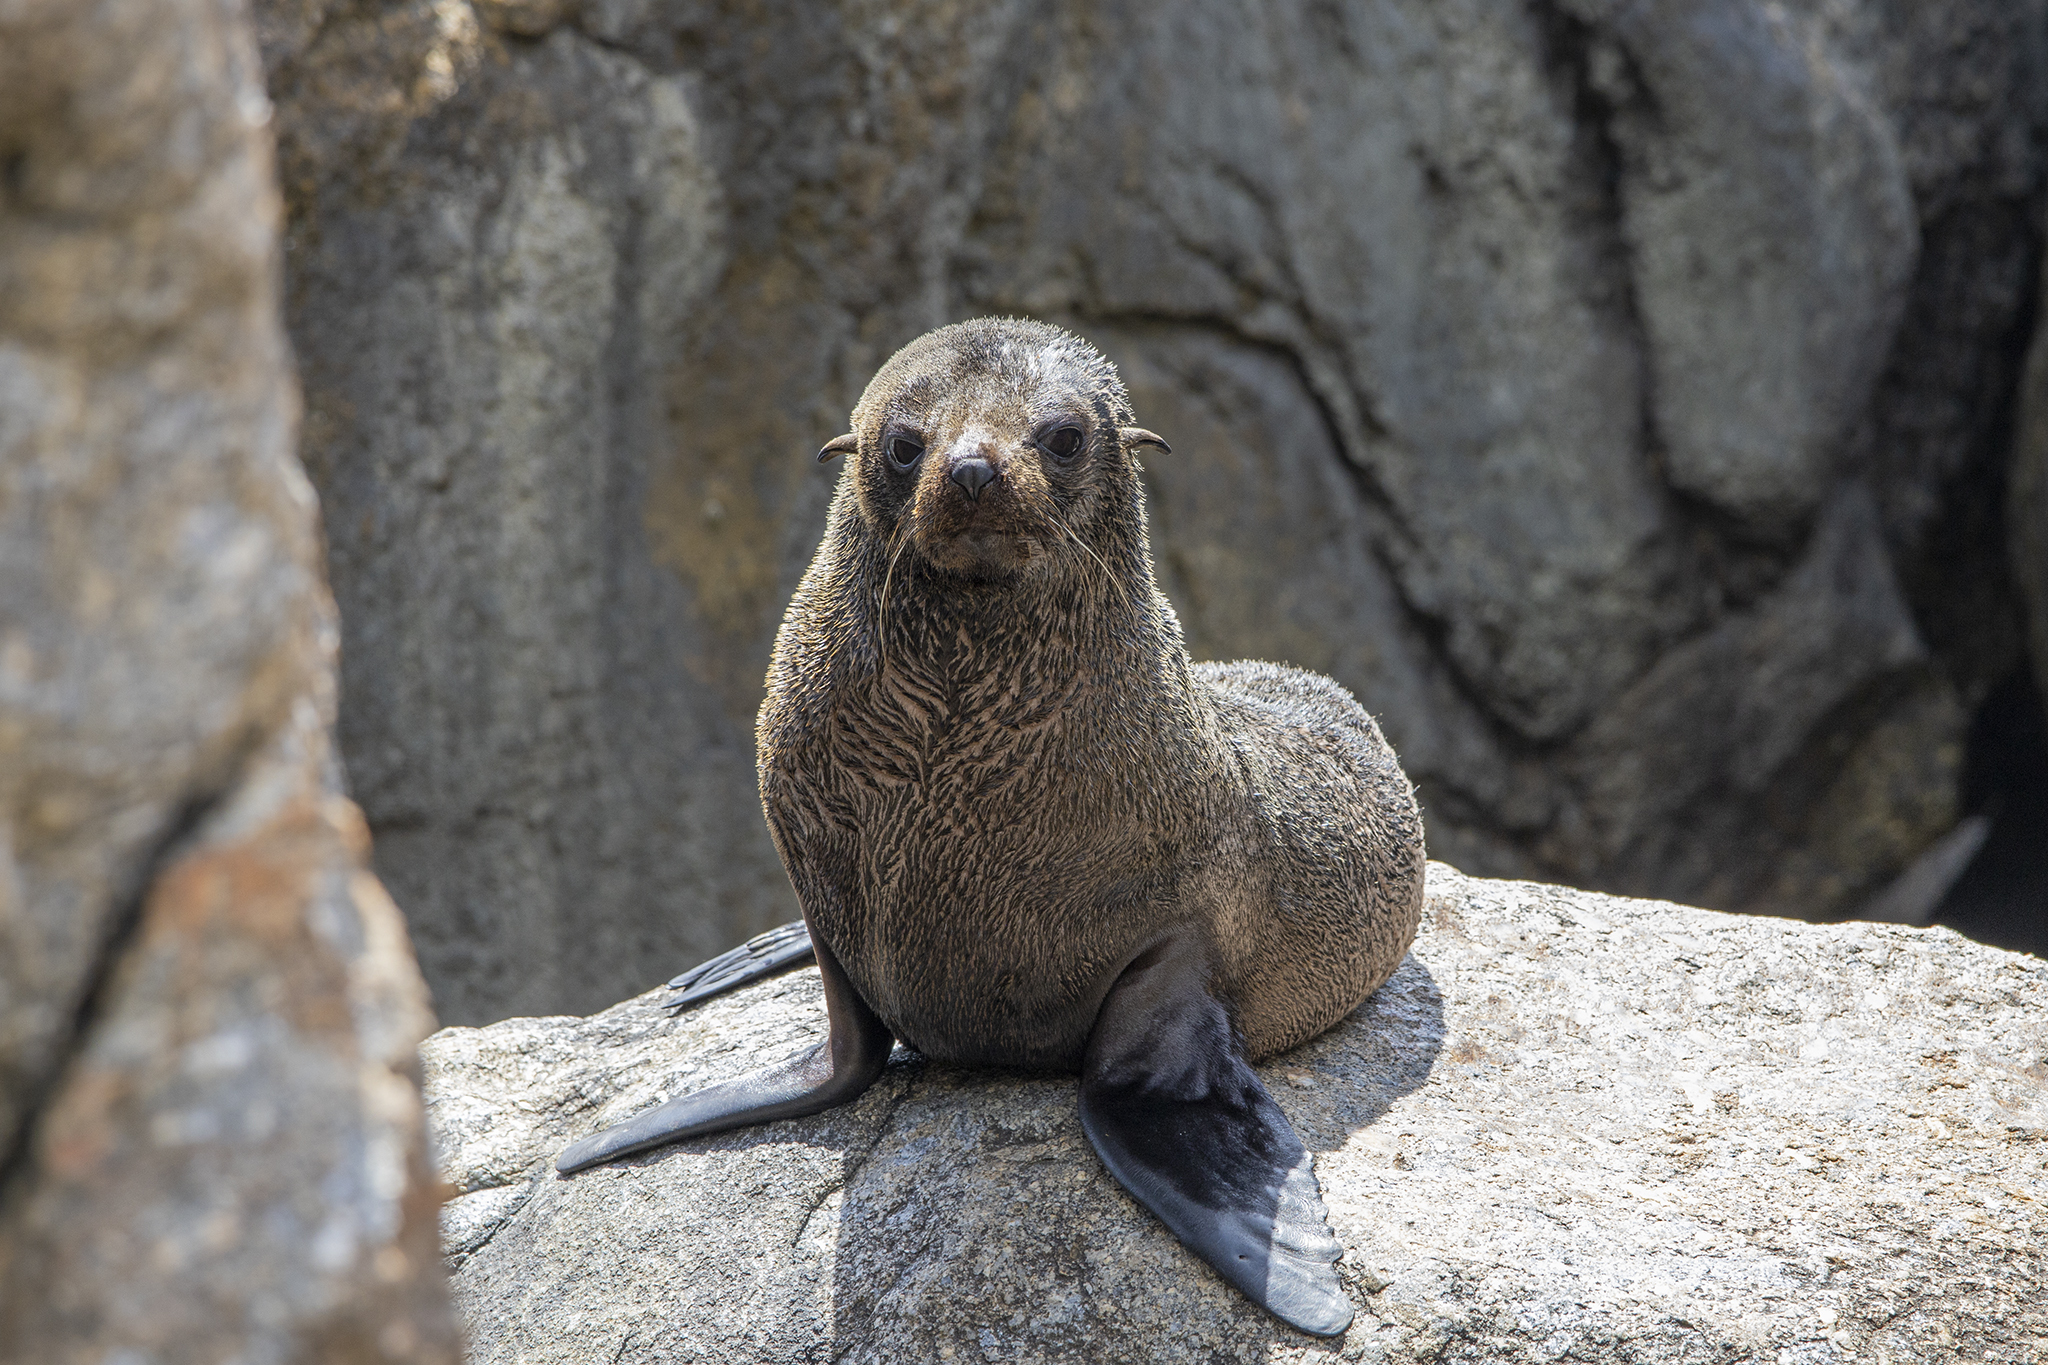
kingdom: Animalia
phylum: Chordata
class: Mammalia
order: Carnivora
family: Otariidae
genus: Arctocephalus
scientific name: Arctocephalus forsteri
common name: New zealand fur seal
